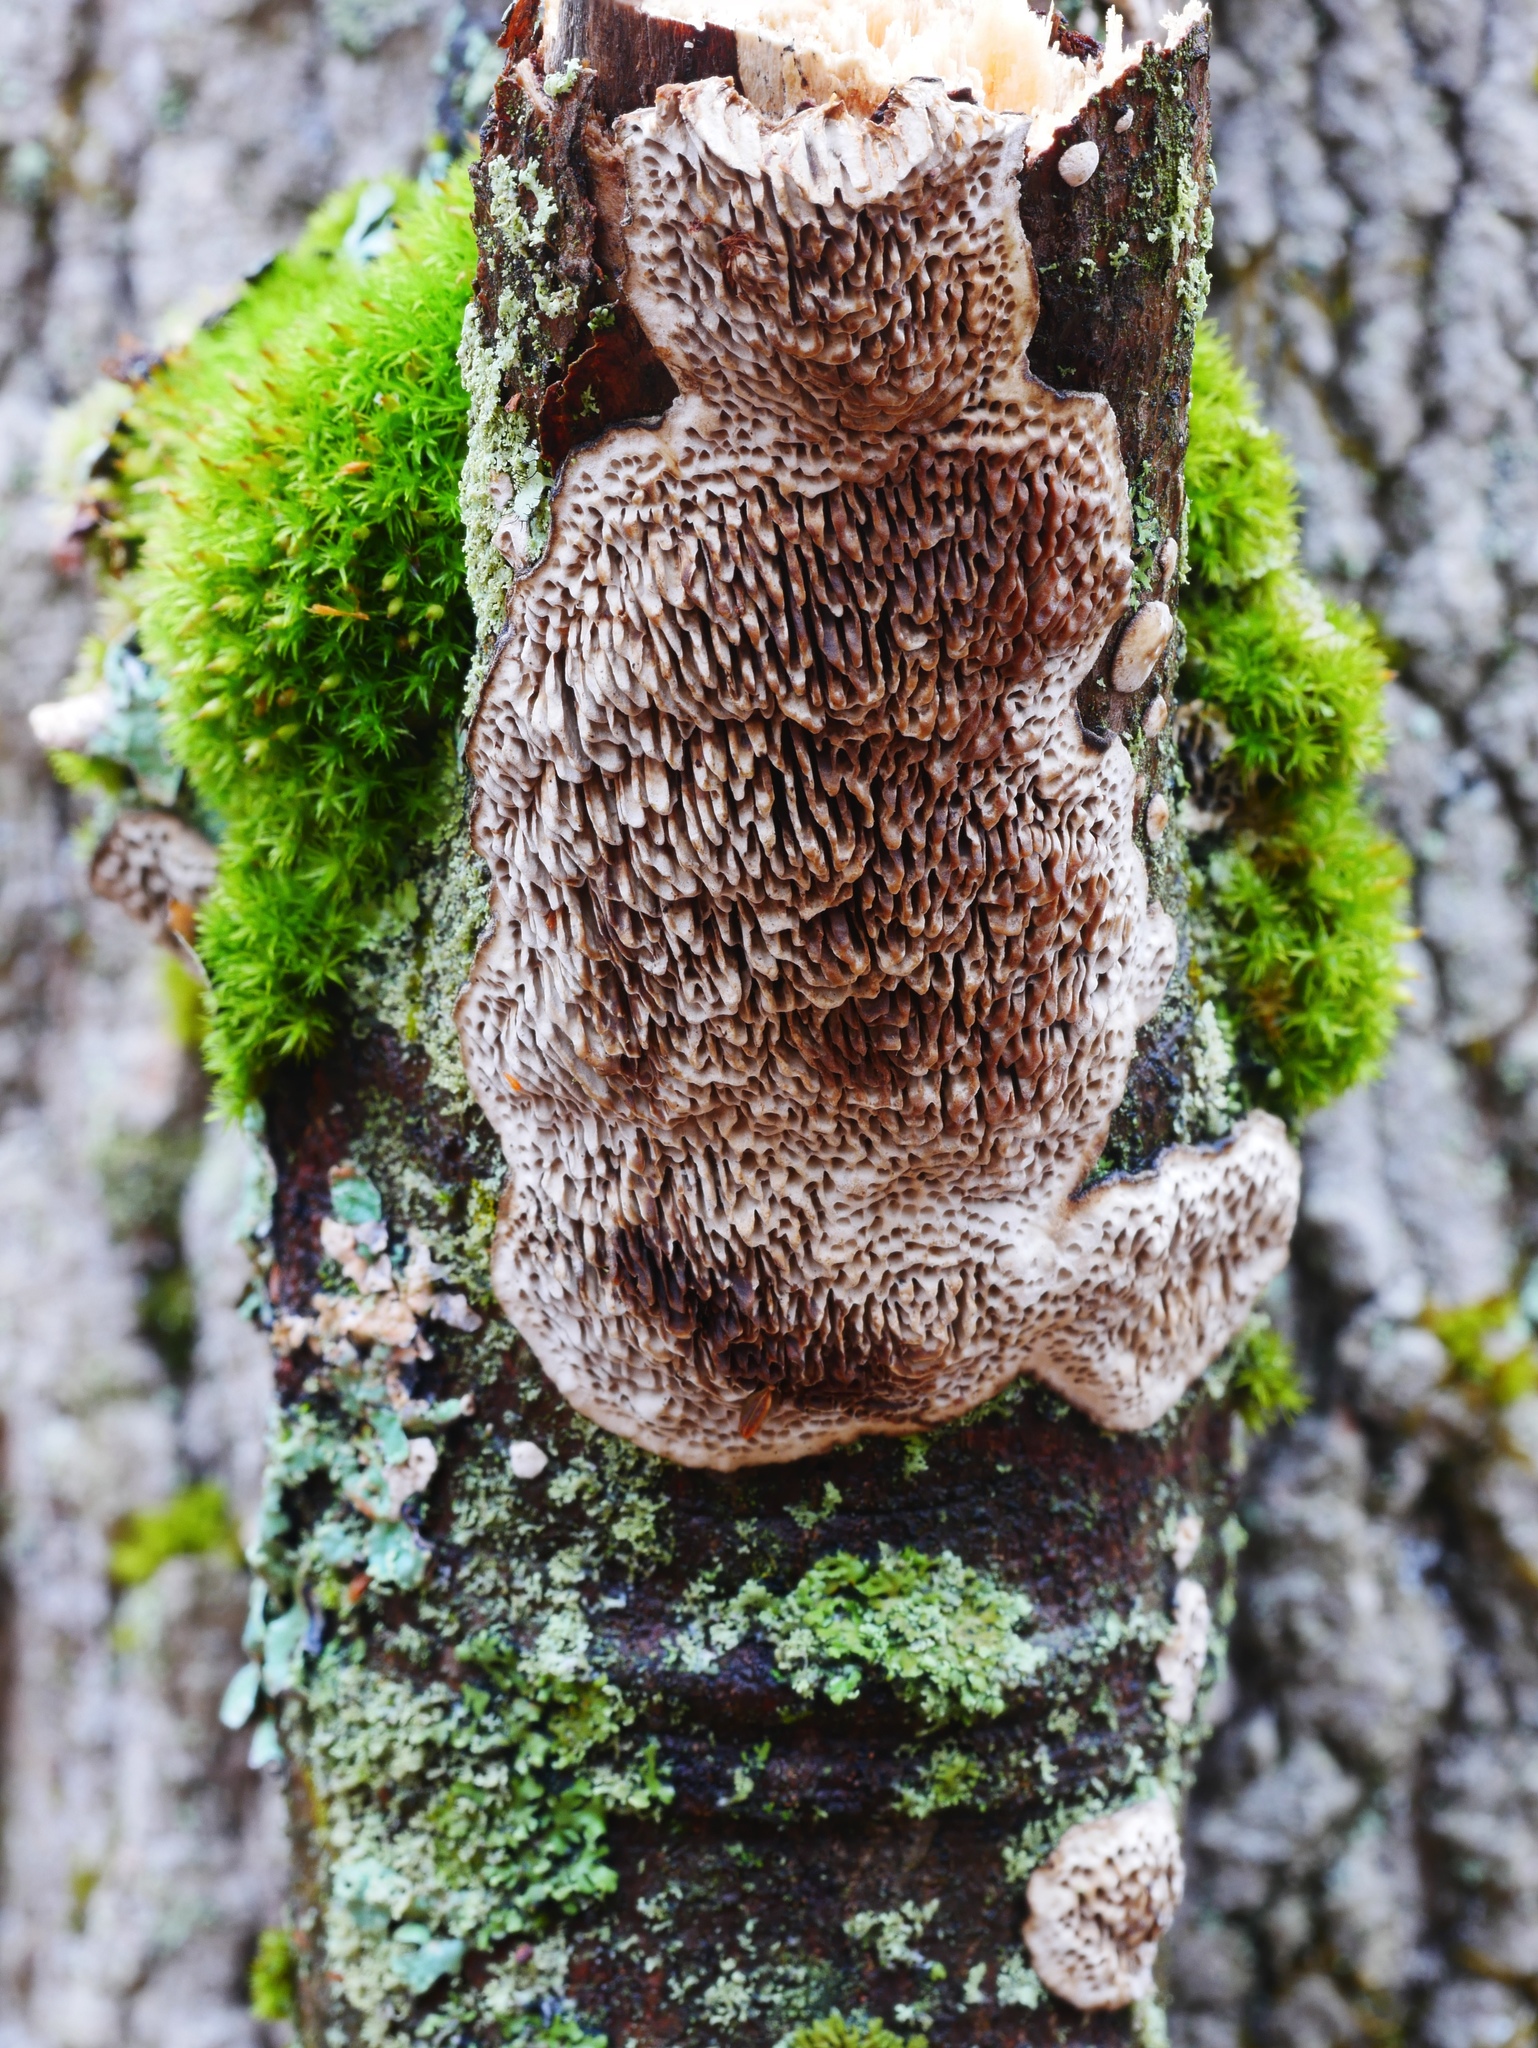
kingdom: Fungi
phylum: Basidiomycota
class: Agaricomycetes
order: Polyporales
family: Polyporaceae
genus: Podofomes
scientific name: Podofomes mollis
